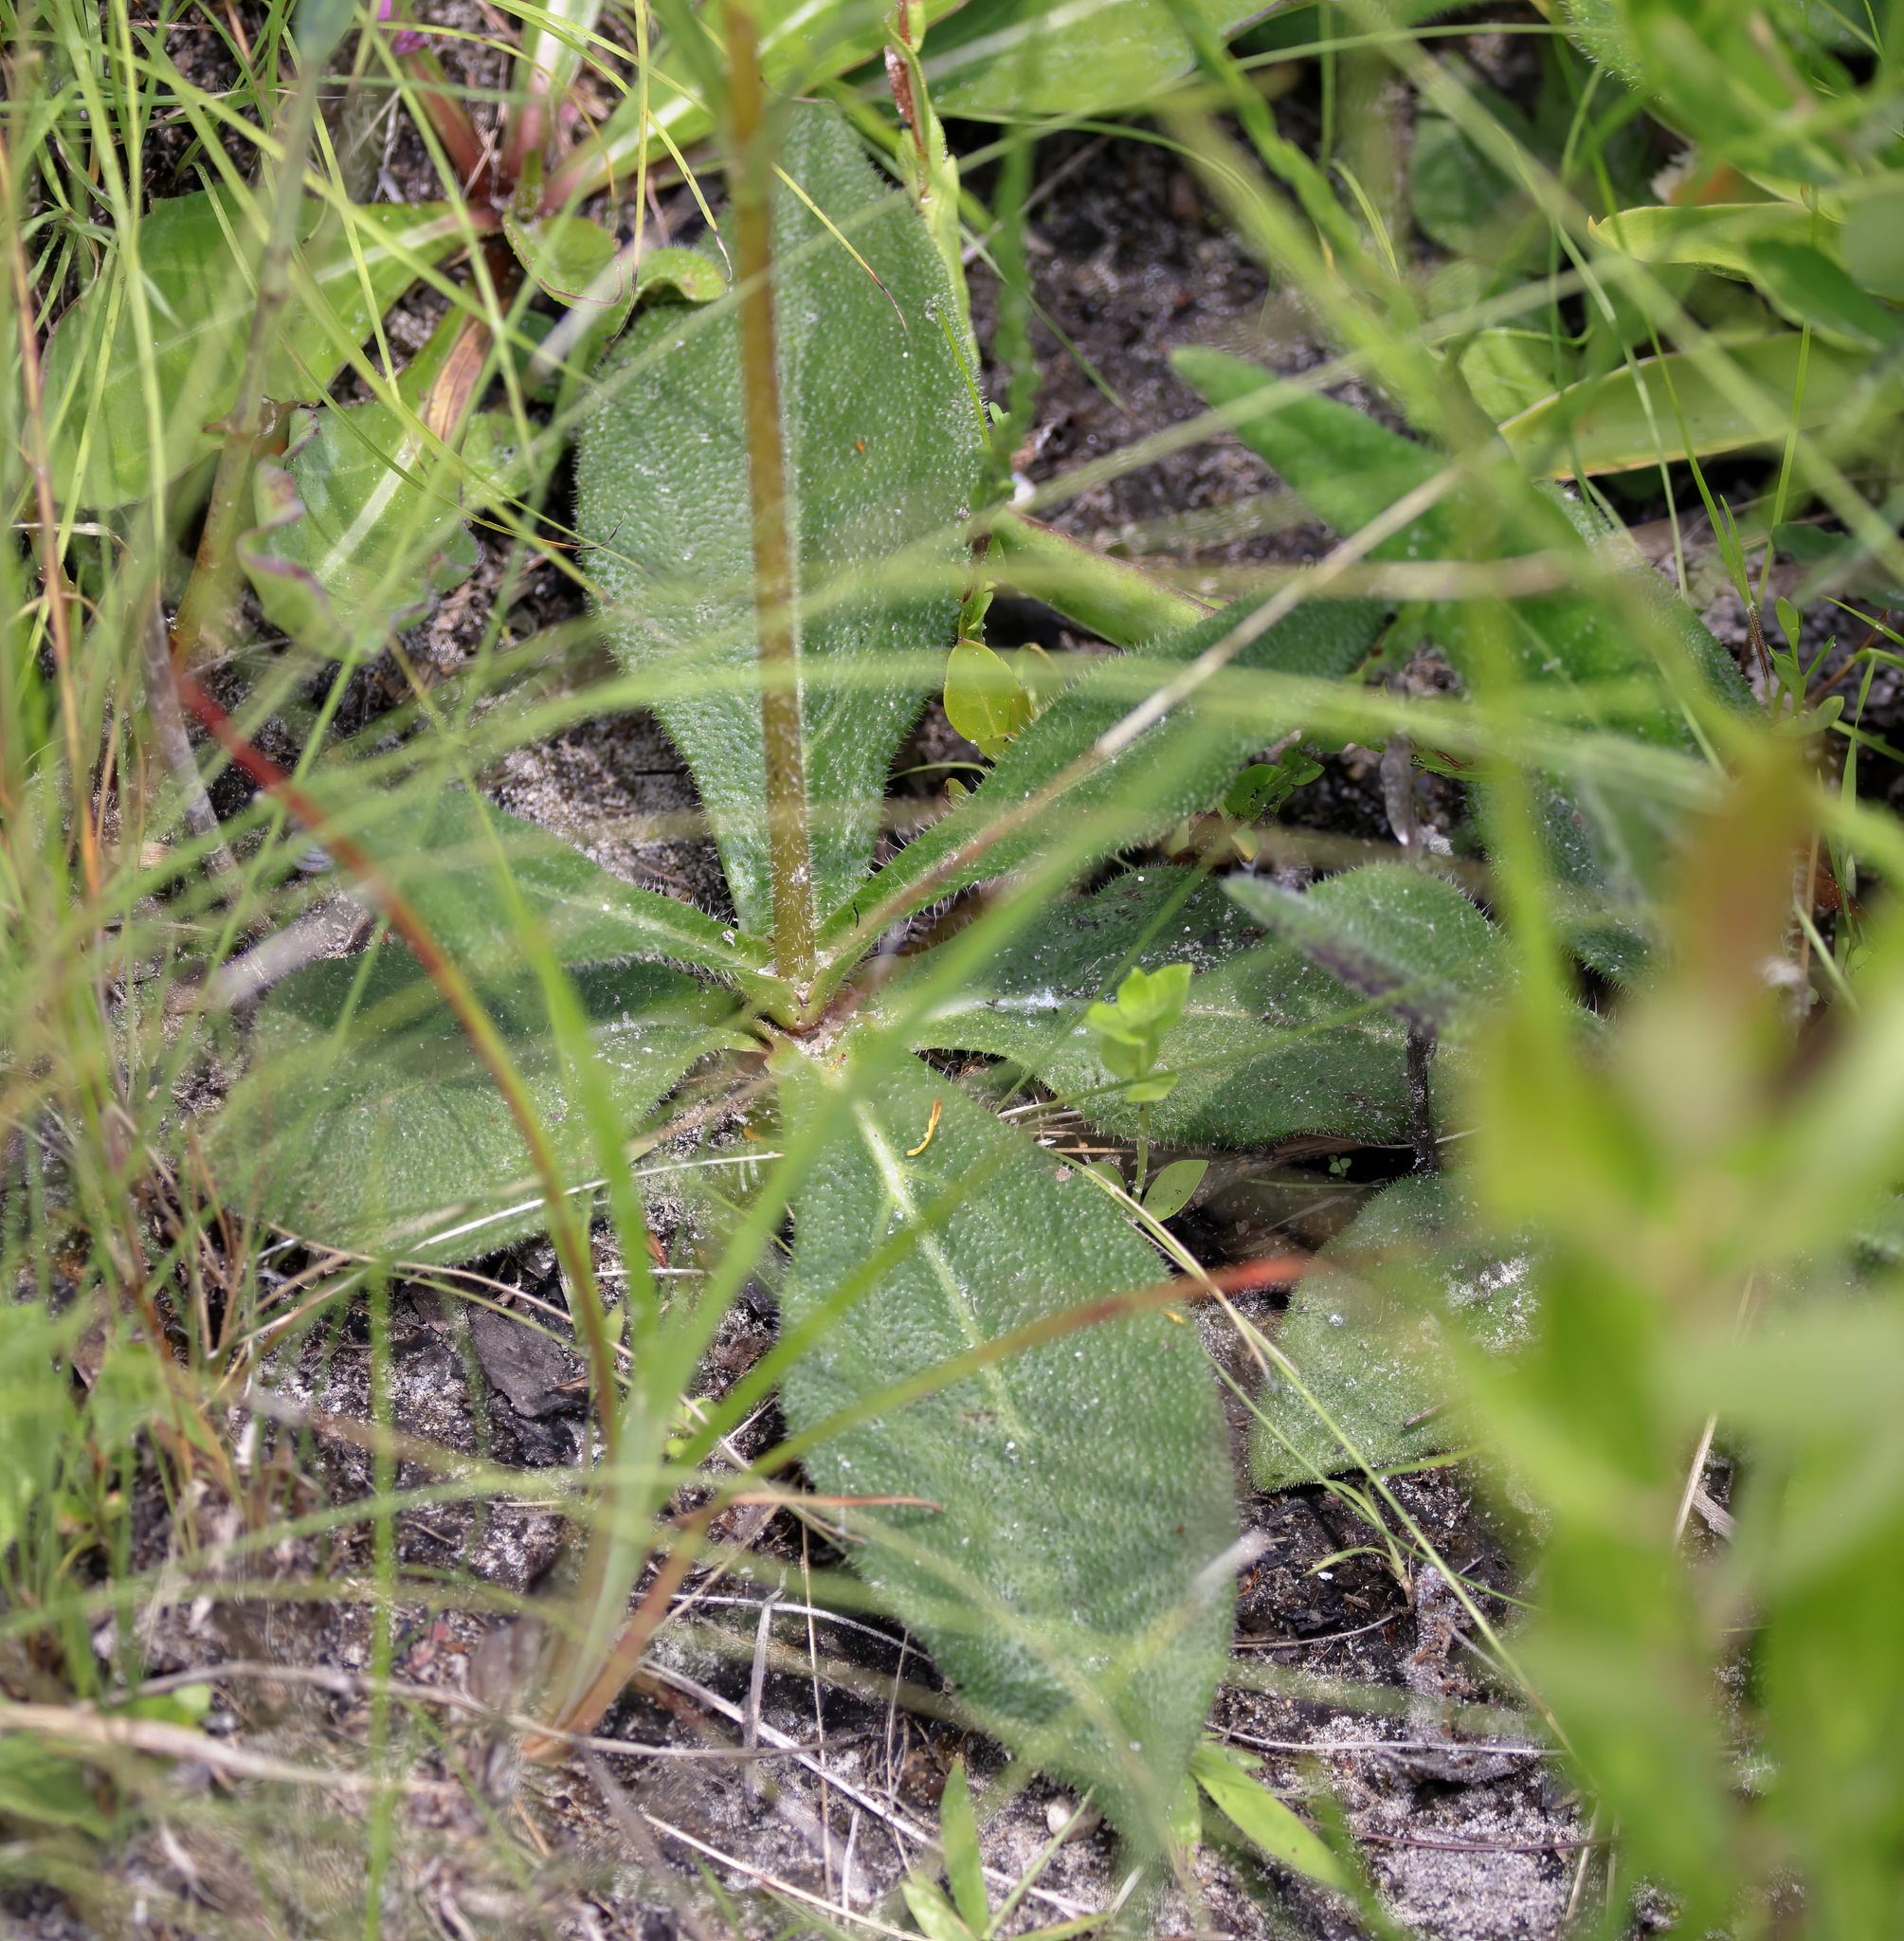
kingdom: Plantae
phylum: Tracheophyta
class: Magnoliopsida
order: Asterales
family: Asteraceae
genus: Helianthus
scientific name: Helianthus heterophyllus
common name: Wetland sunflower
